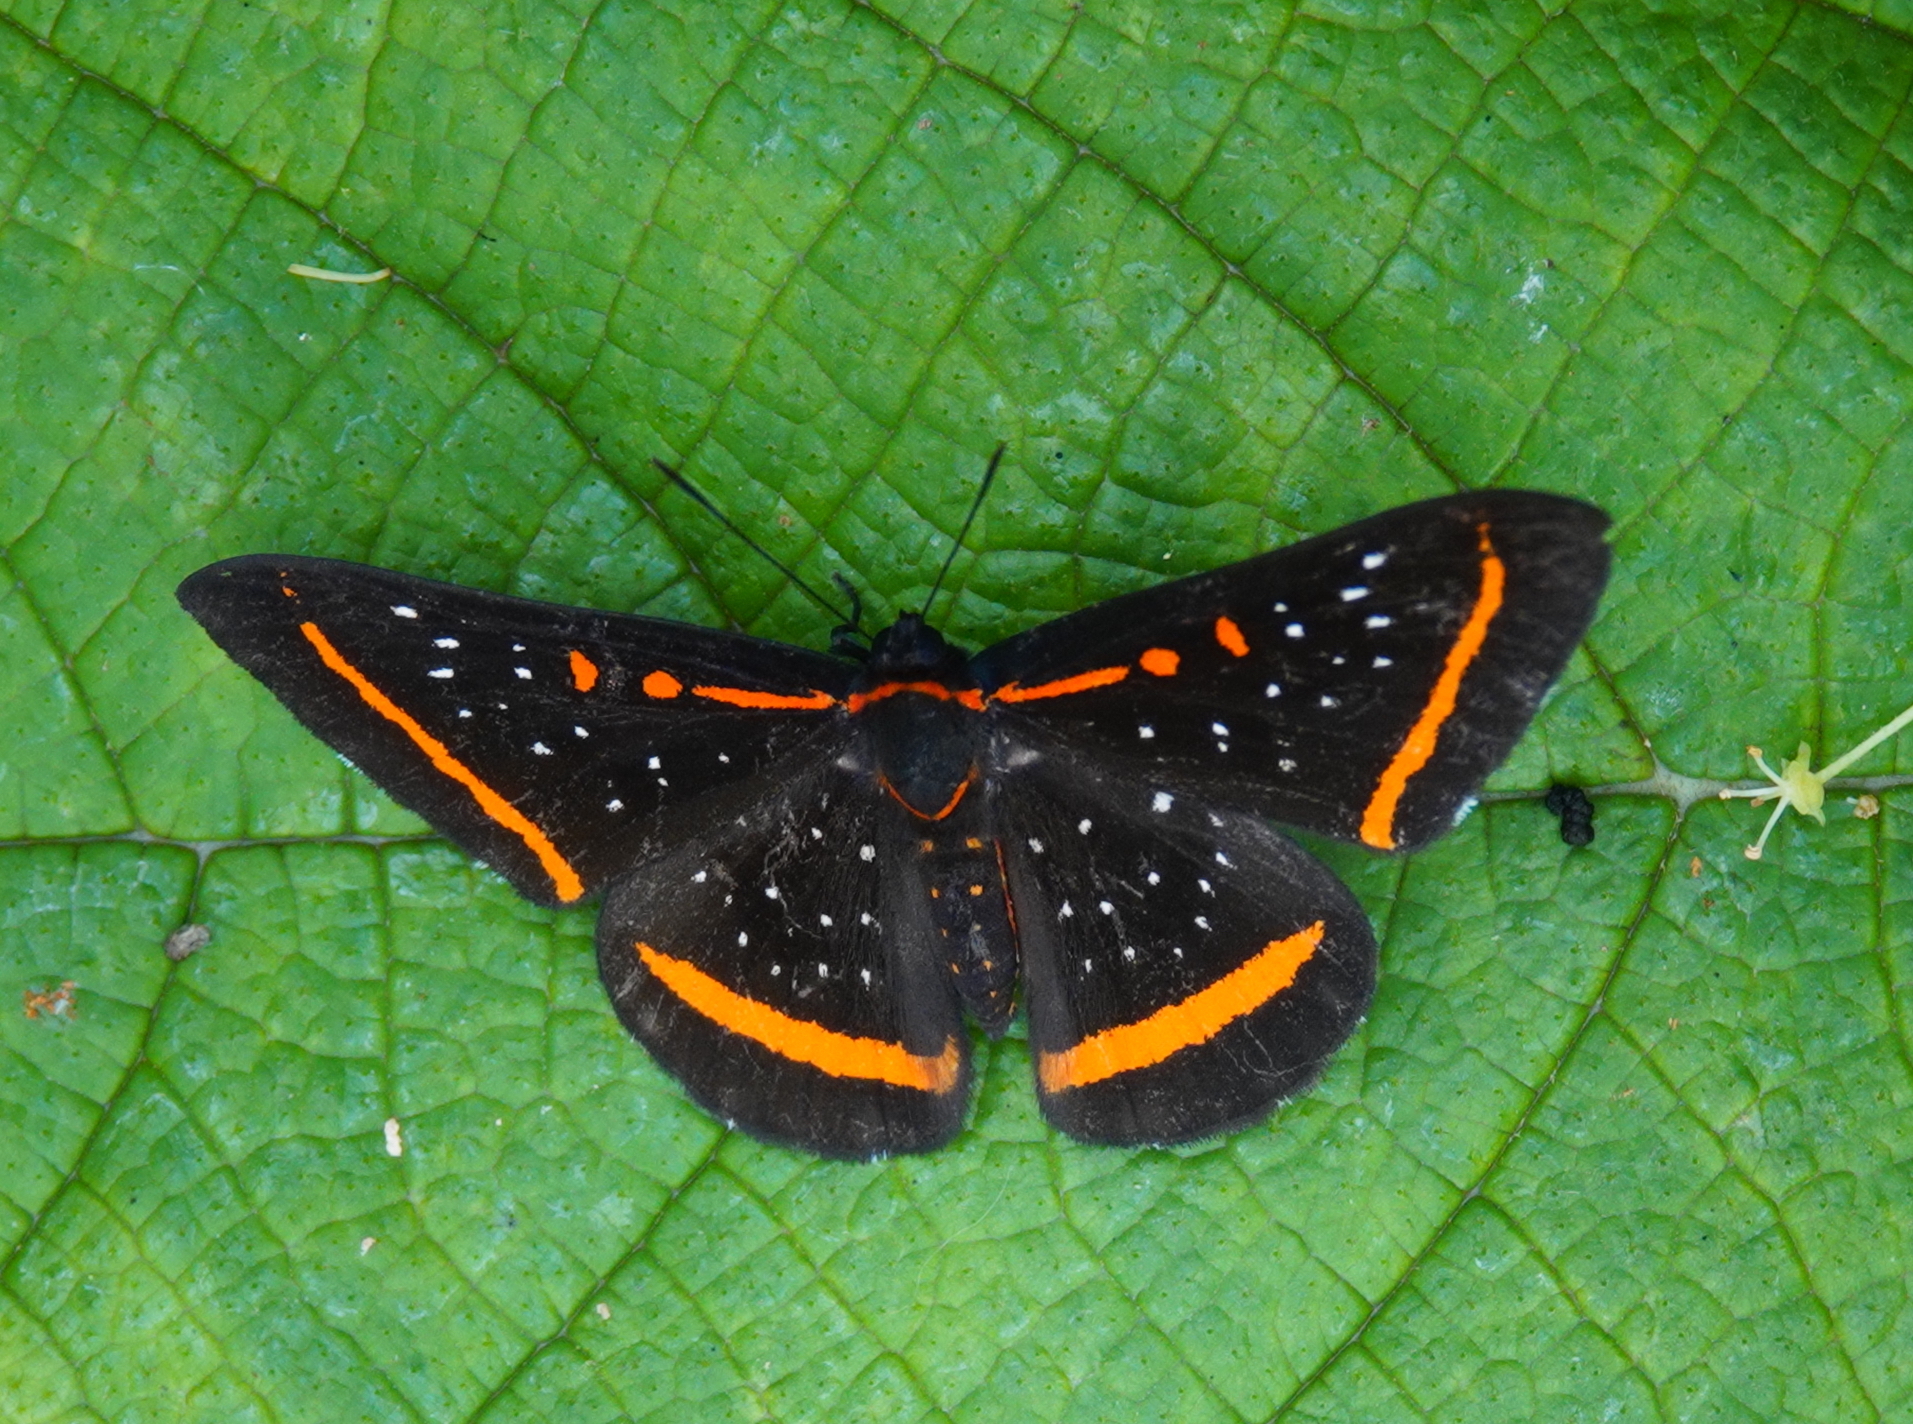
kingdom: Animalia
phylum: Arthropoda
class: Insecta
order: Lepidoptera
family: Riodinidae
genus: Amarynthis
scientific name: Amarynthis meneria
